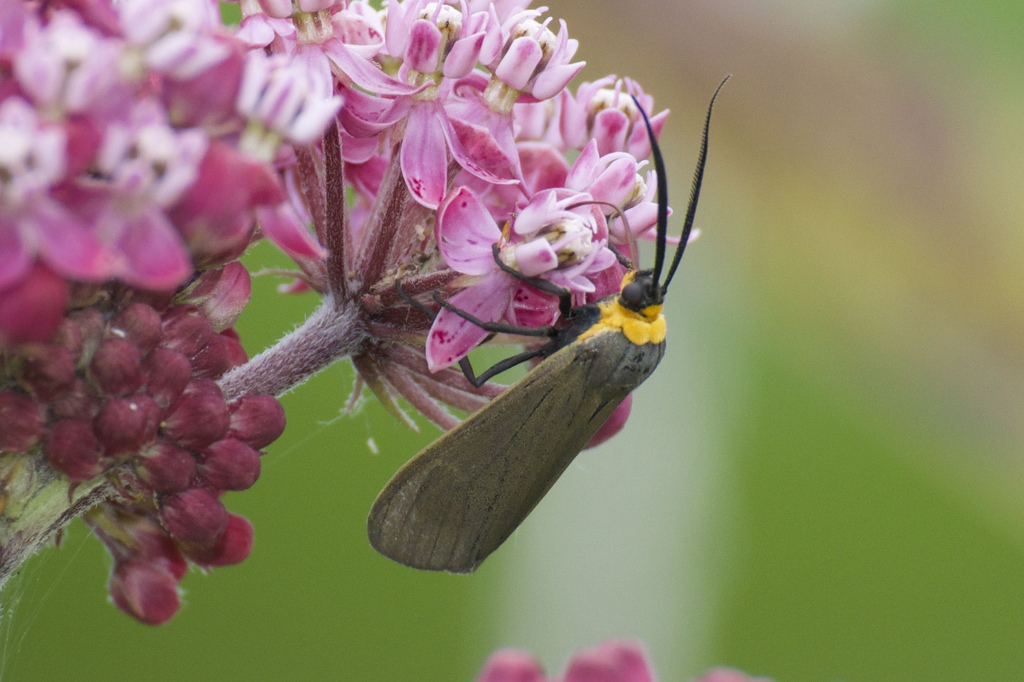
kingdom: Animalia
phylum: Arthropoda
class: Insecta
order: Lepidoptera
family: Erebidae
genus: Cisseps
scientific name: Cisseps fulvicollis
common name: Yellow-collared scape moth
